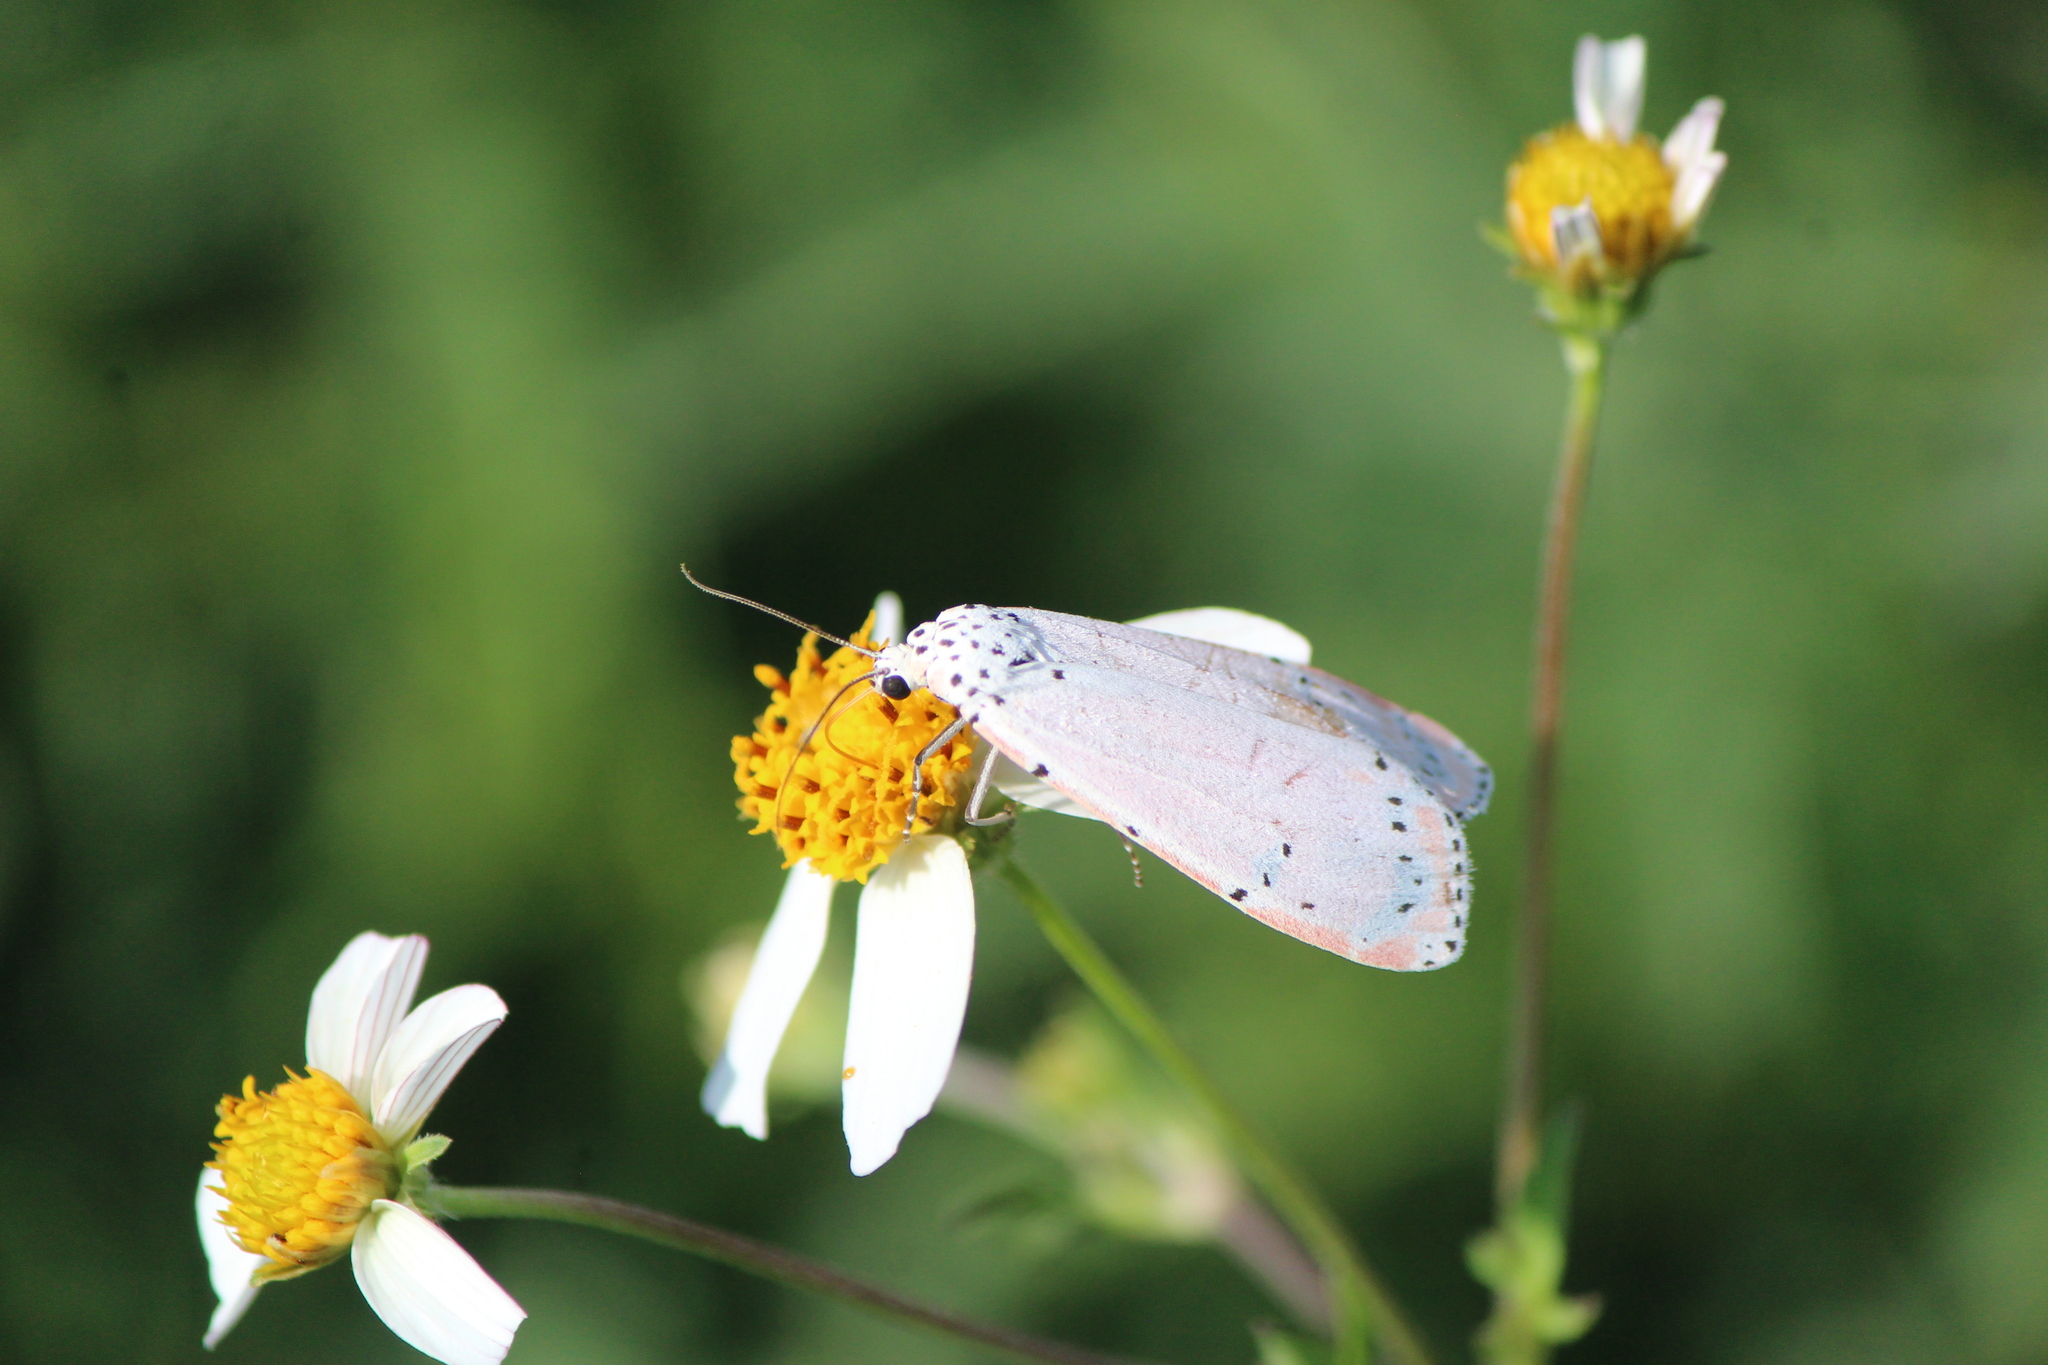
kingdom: Animalia
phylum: Arthropoda
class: Insecta
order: Lepidoptera
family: Erebidae
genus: Utetheisa
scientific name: Utetheisa ornatrix
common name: Beautiful utetheisa
